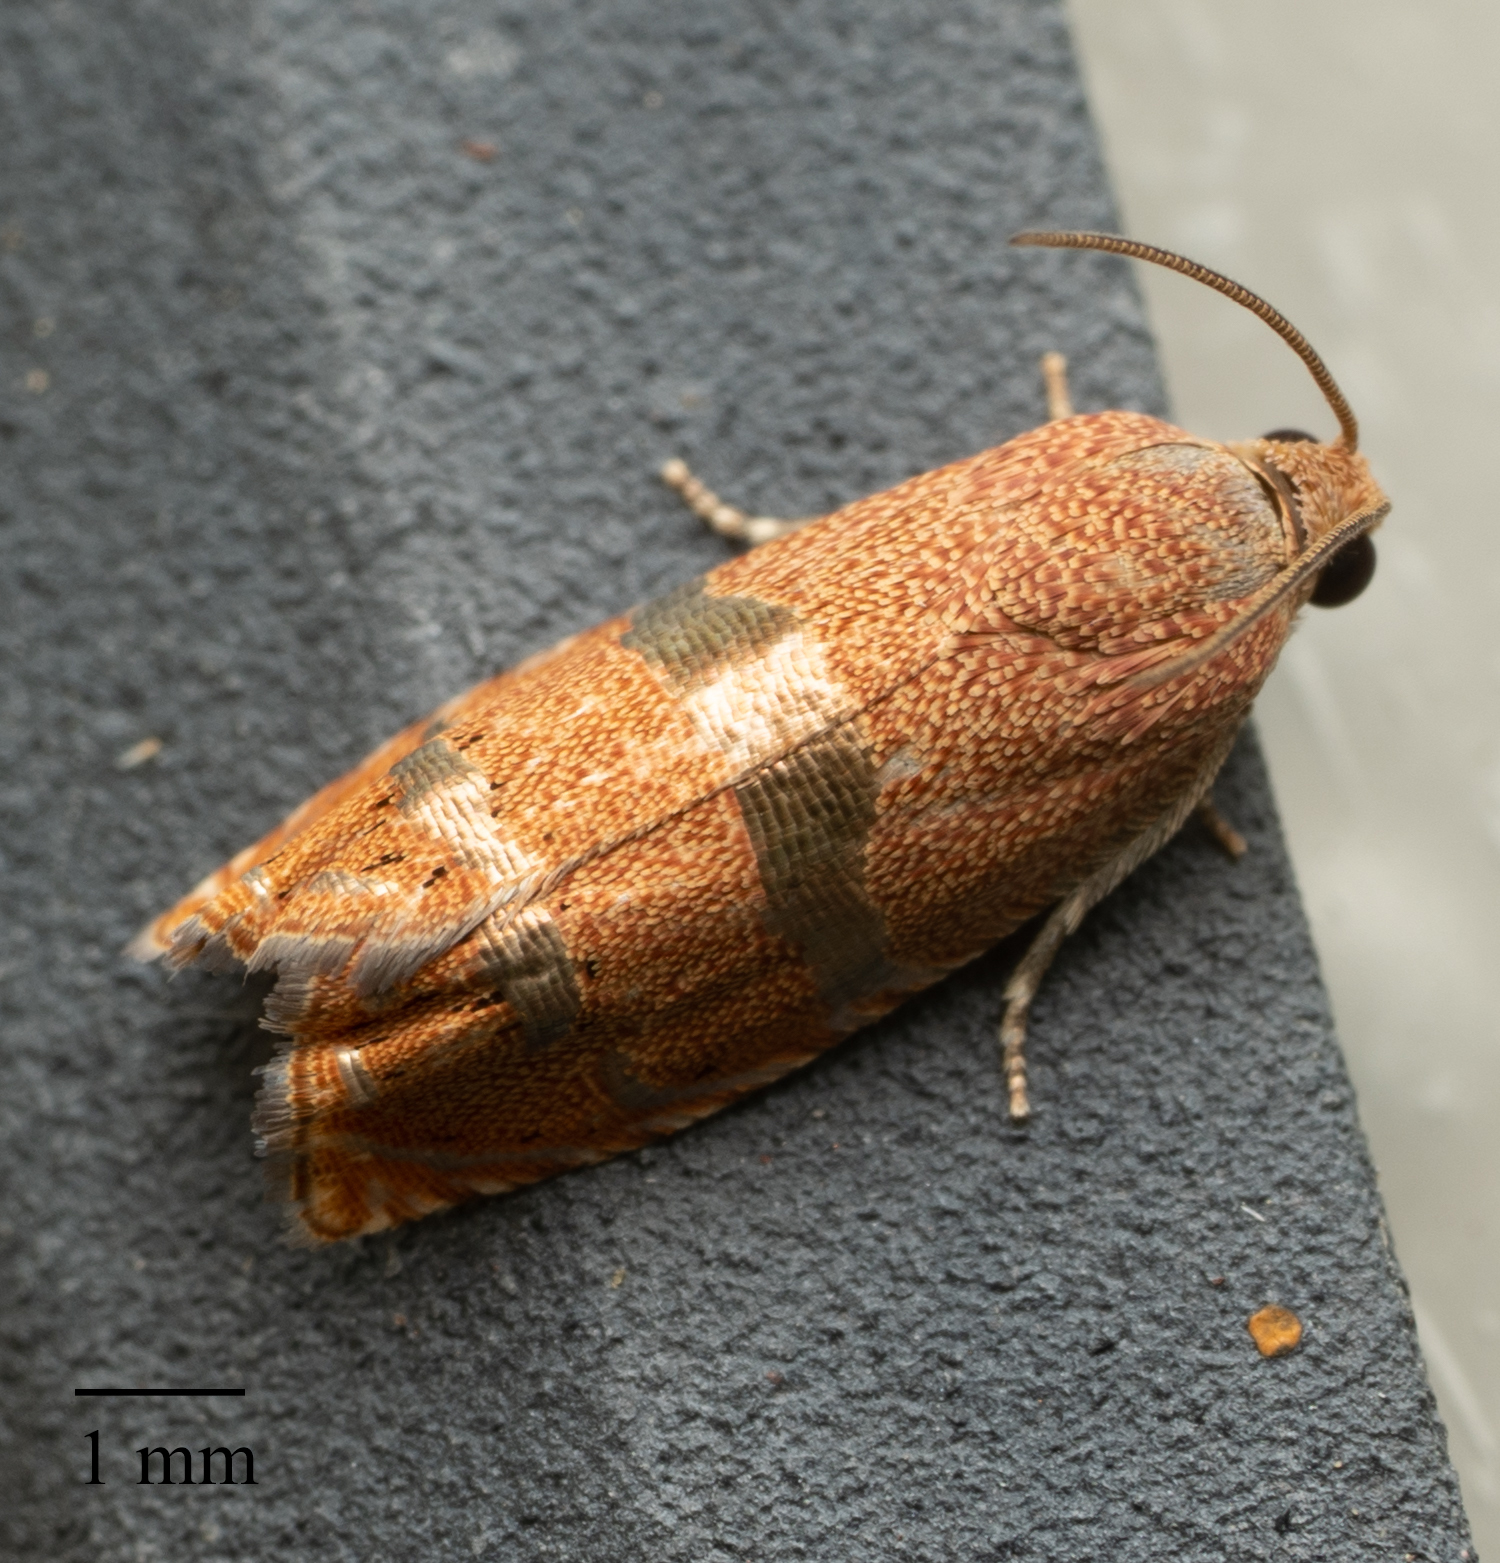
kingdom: Animalia
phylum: Arthropoda
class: Insecta
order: Lepidoptera
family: Tortricidae
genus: Cydia
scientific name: Cydia latiferreana
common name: Filbertworm moth
